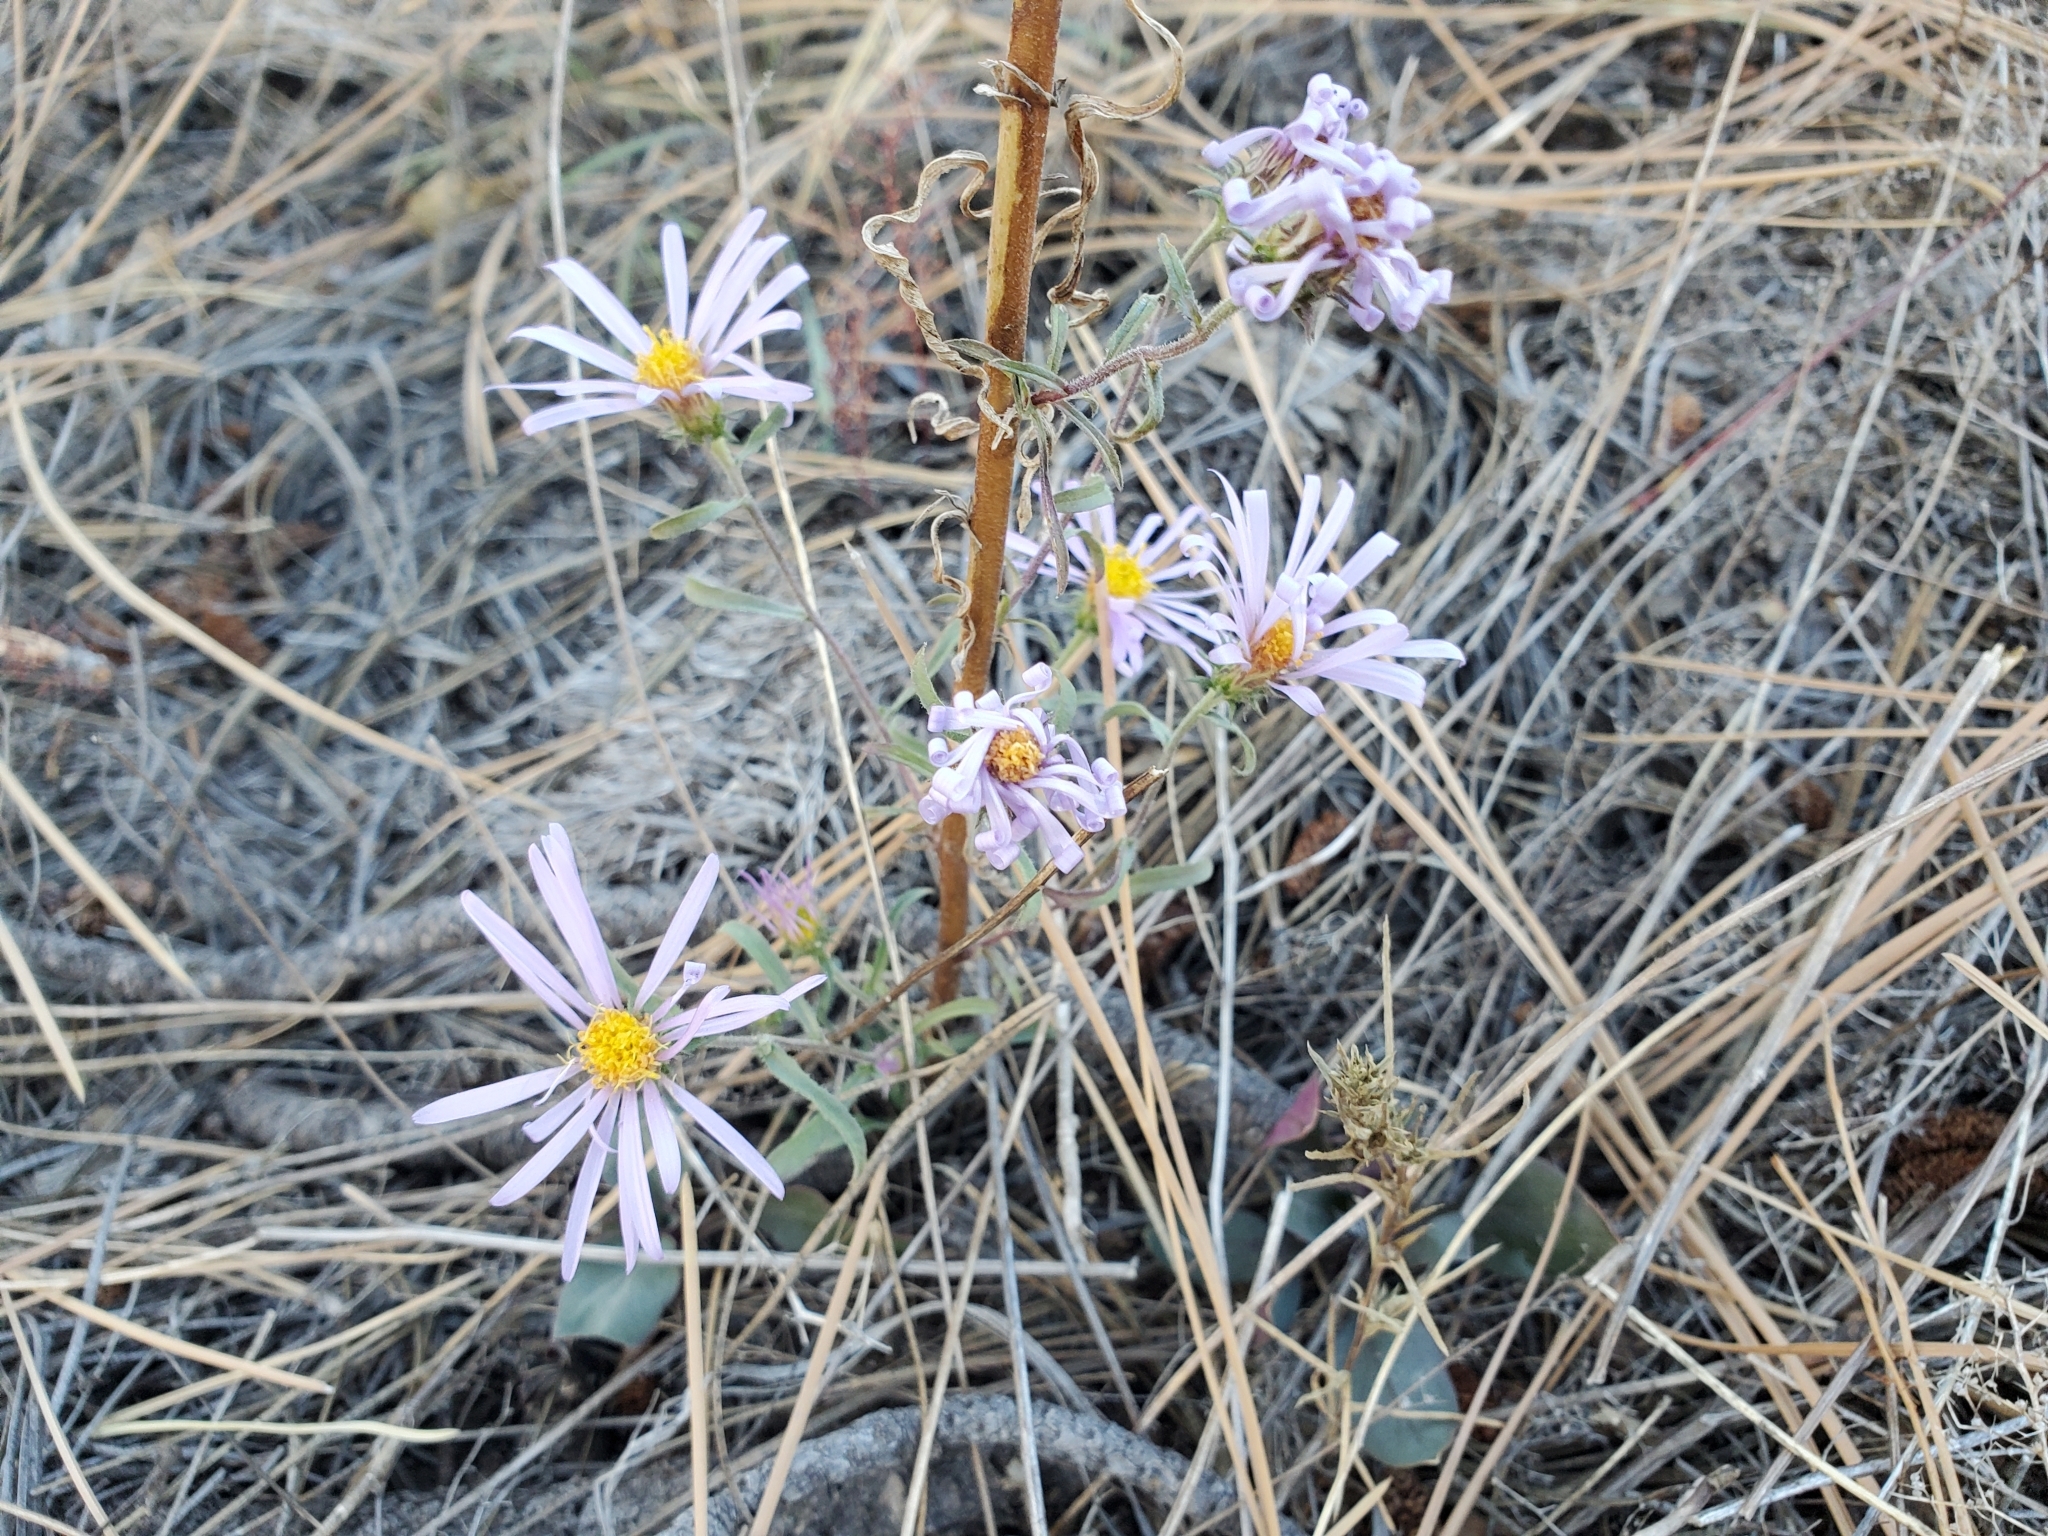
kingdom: Plantae
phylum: Tracheophyta
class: Magnoliopsida
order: Asterales
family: Asteraceae
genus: Dieteria
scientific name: Dieteria canescens
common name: Hoary-aster
